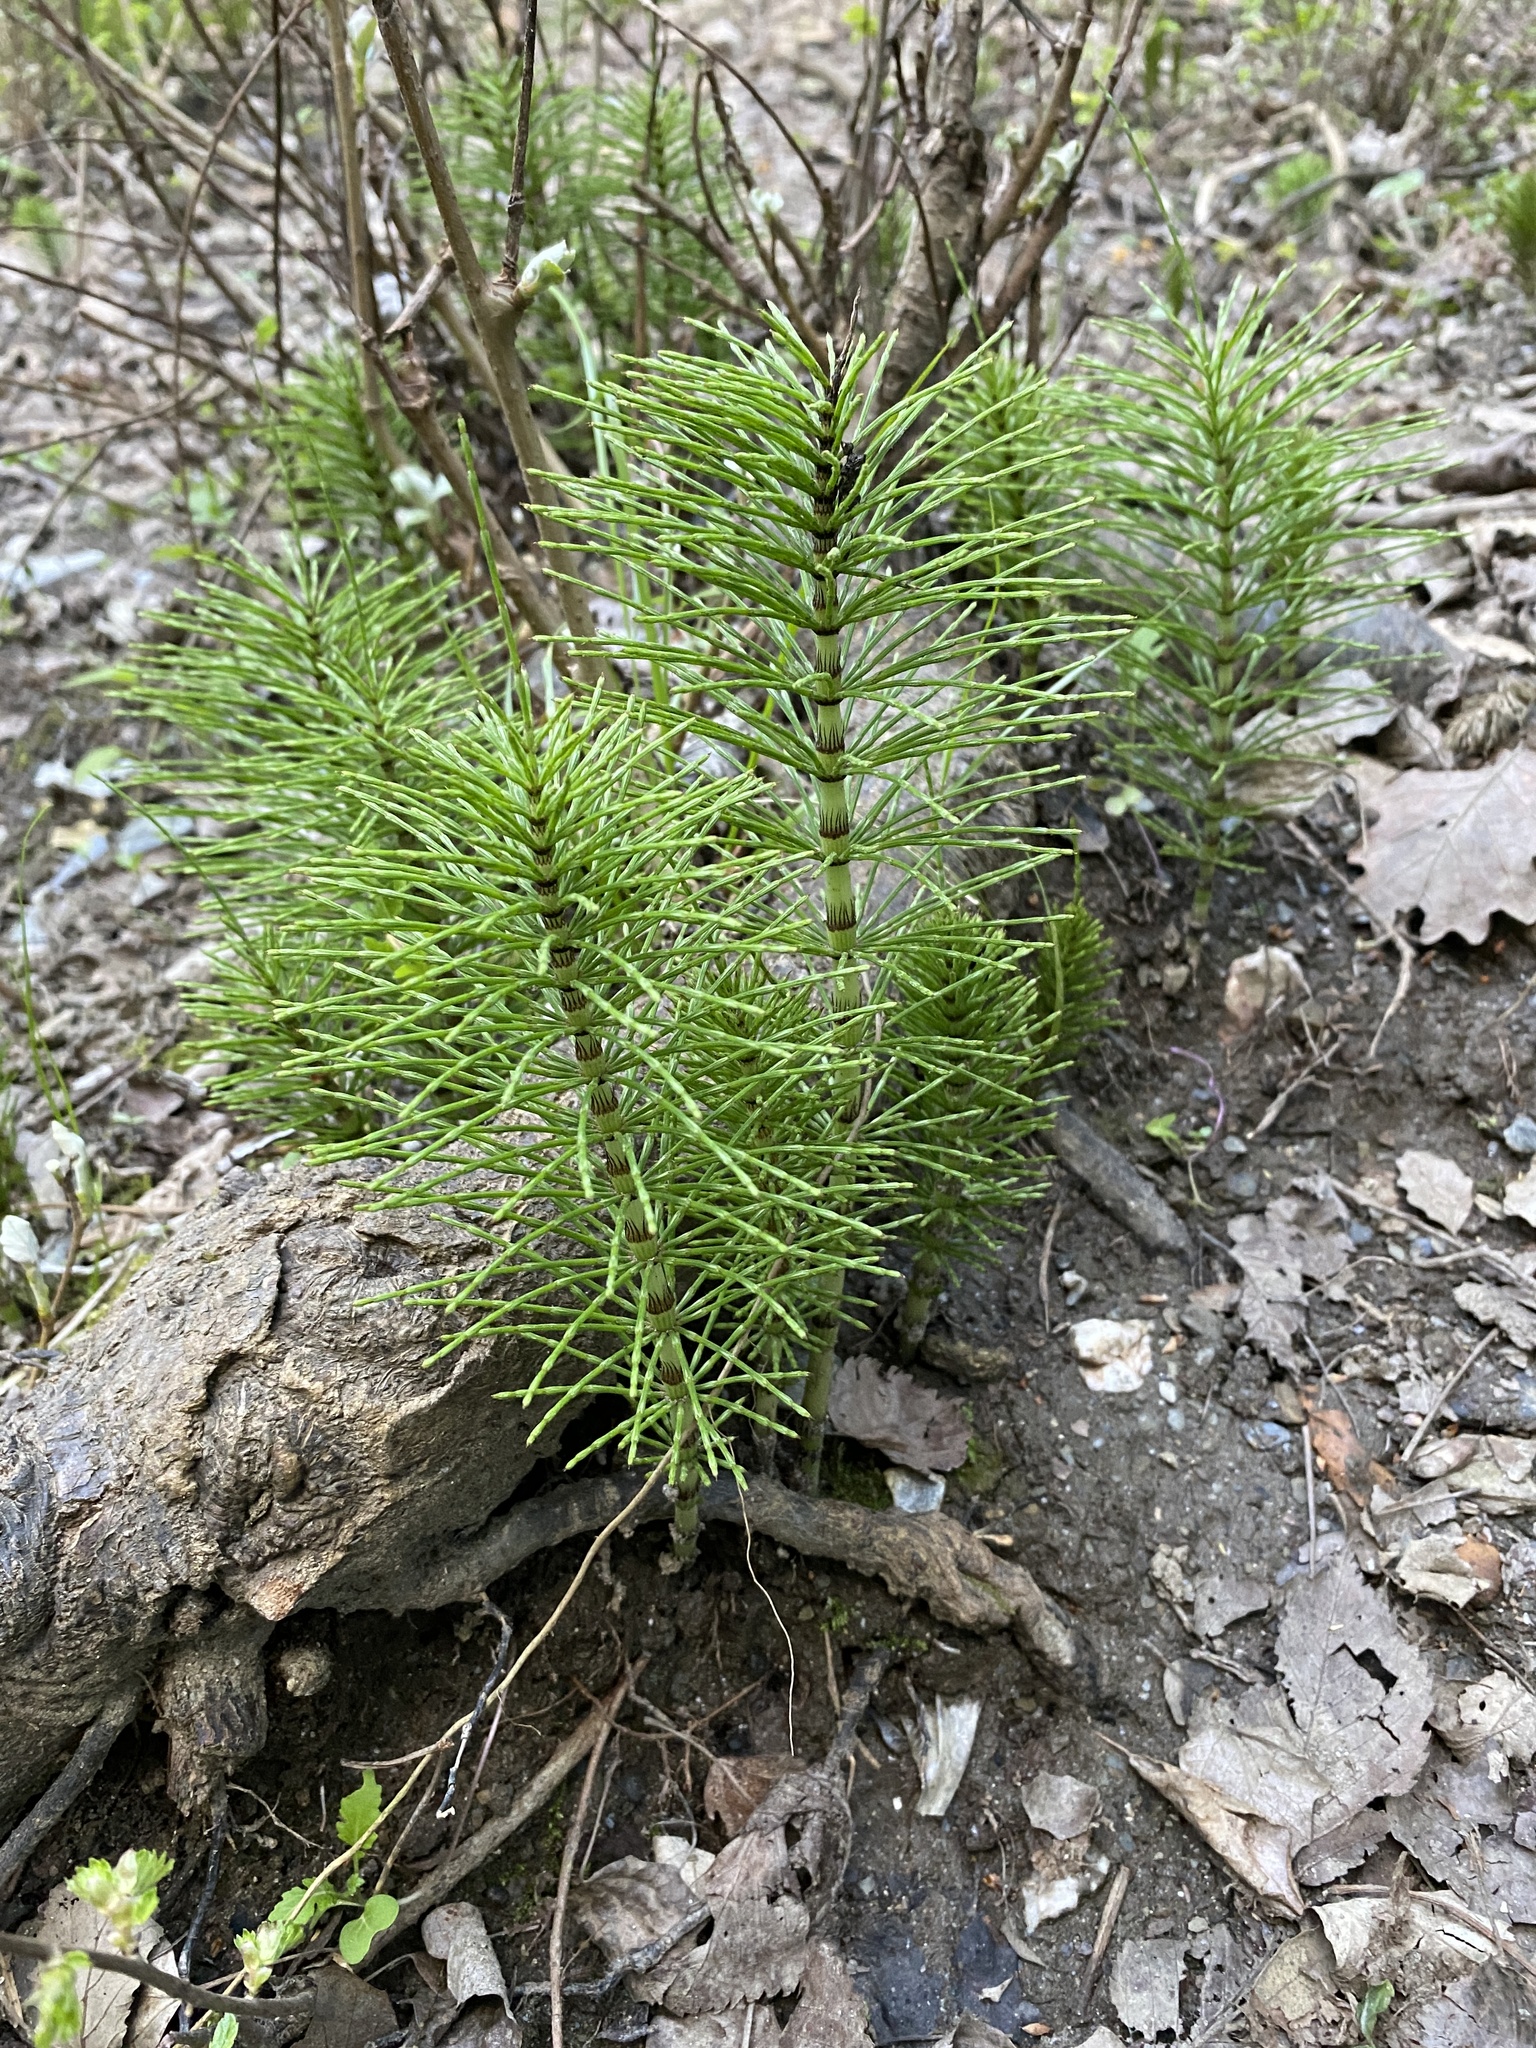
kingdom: Plantae
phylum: Tracheophyta
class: Polypodiopsida
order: Equisetales
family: Equisetaceae
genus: Equisetum
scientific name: Equisetum telmateia
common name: Great horsetail
